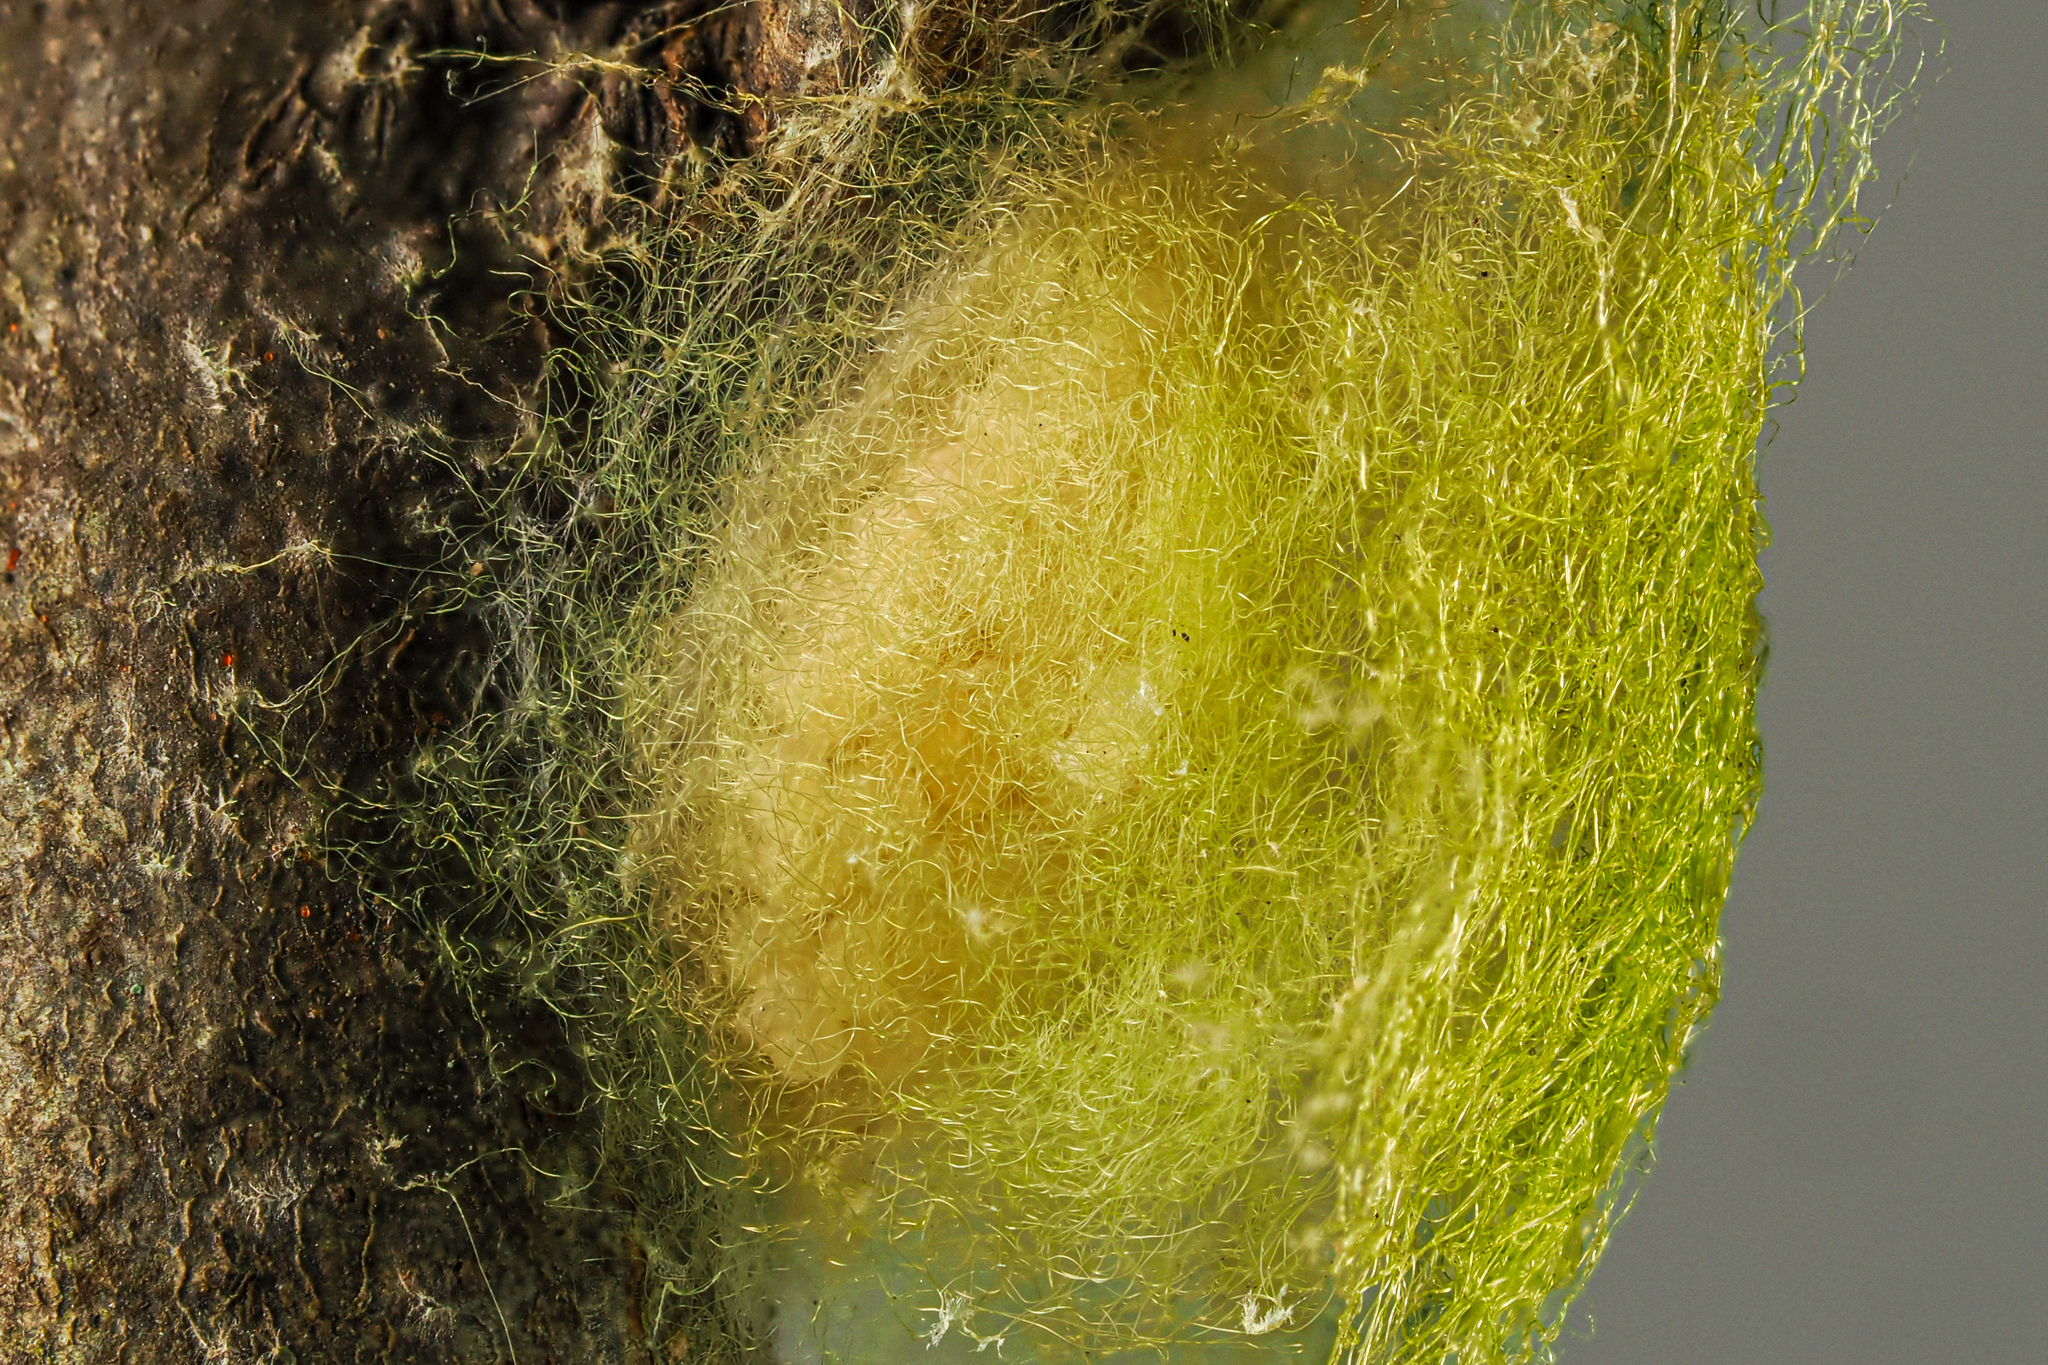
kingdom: Animalia
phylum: Arthropoda
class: Arachnida
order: Araneae
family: Araneidae
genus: Gasteracantha
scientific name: Gasteracantha cancriformis
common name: Orb weavers
